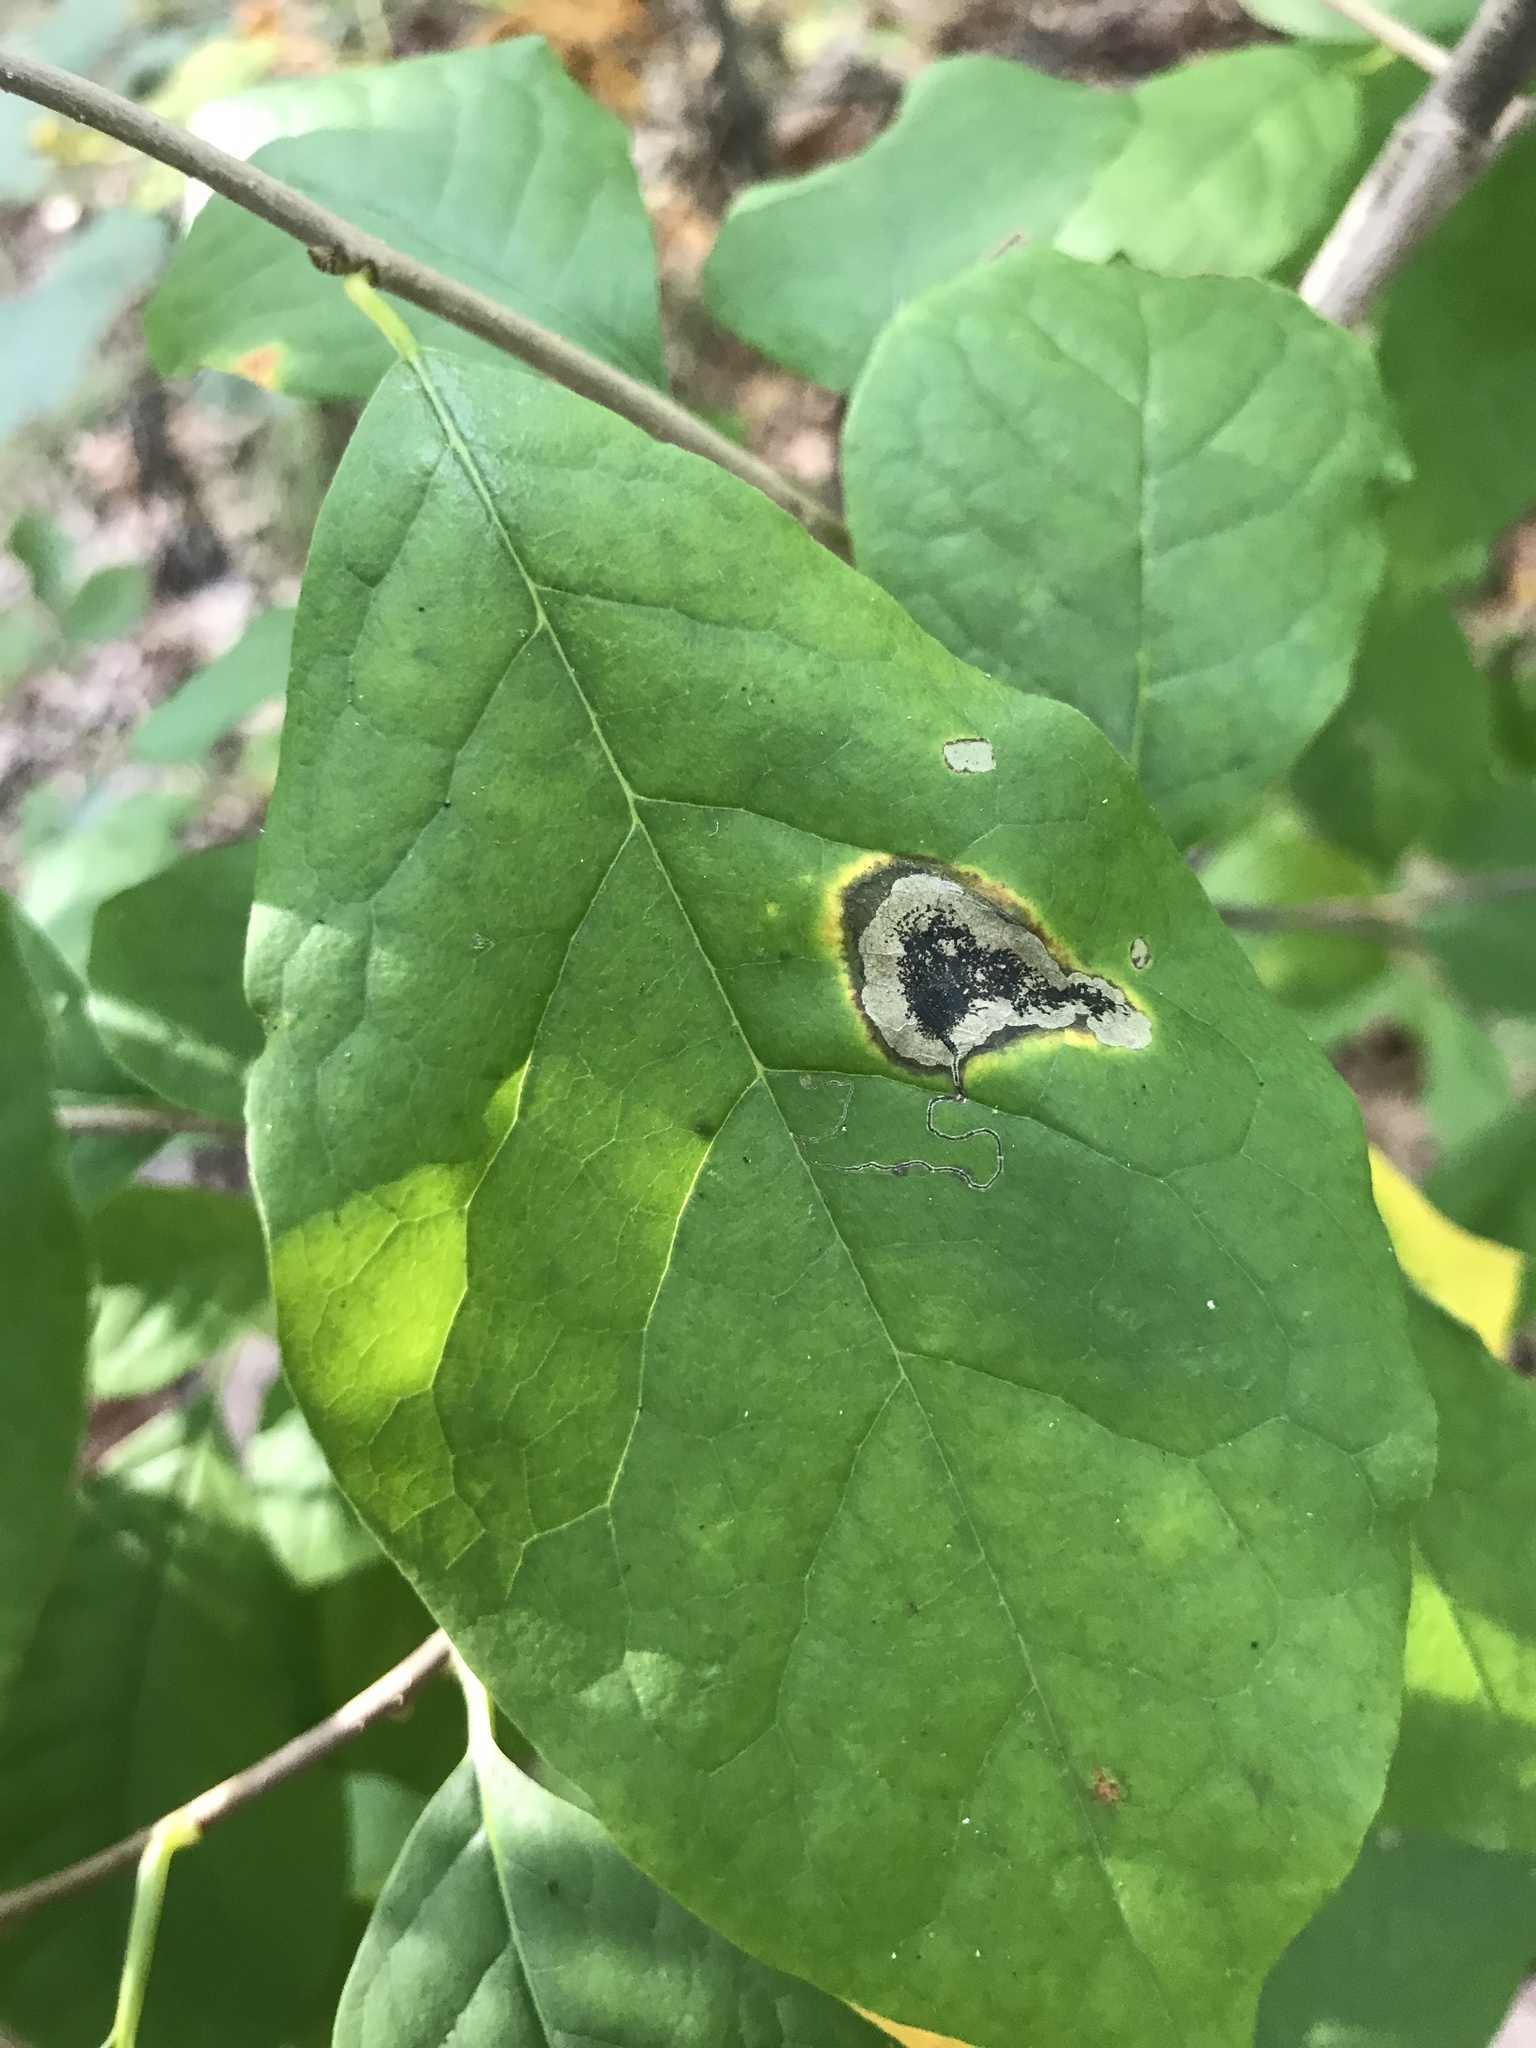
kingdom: Animalia
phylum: Arthropoda
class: Insecta
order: Lepidoptera
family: Nepticulidae
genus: Ectoedemia
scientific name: Ectoedemia nyssaefoliella
